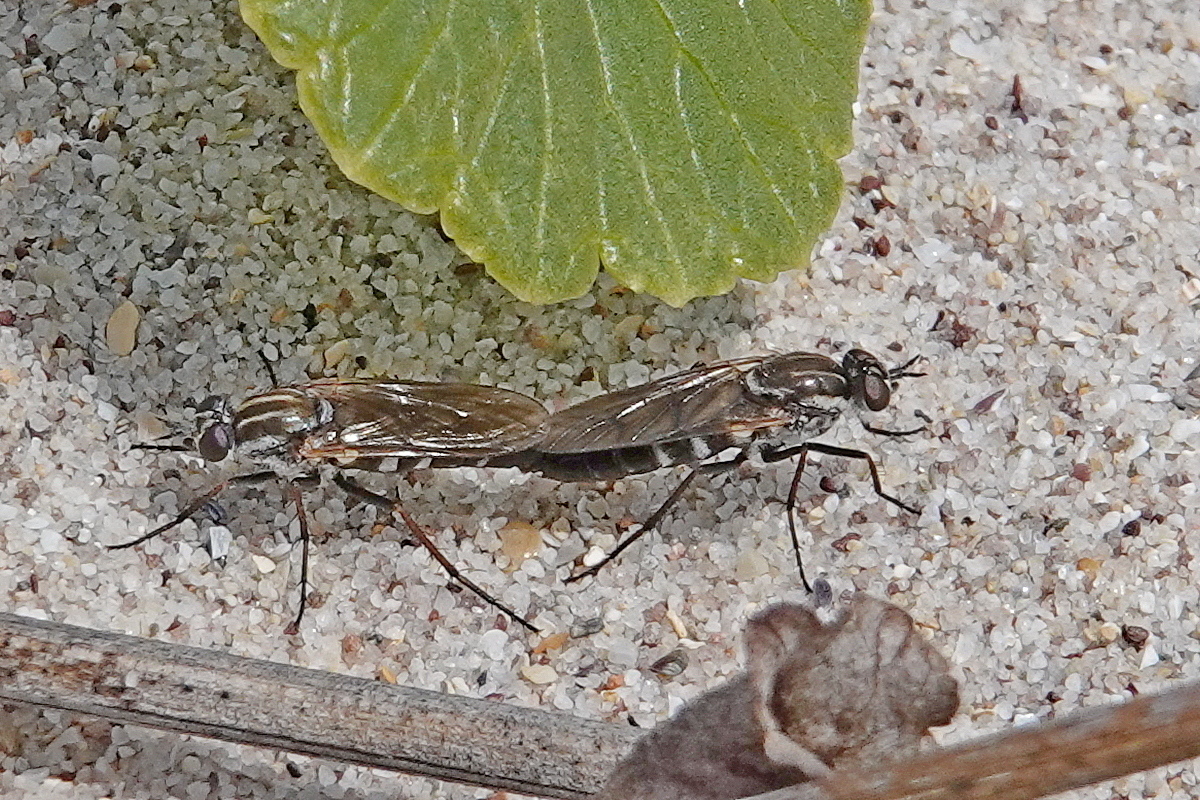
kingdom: Animalia
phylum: Arthropoda
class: Insecta
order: Diptera
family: Therevidae
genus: Anabarhynchus
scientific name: Anabarhynchus hyalipennis
